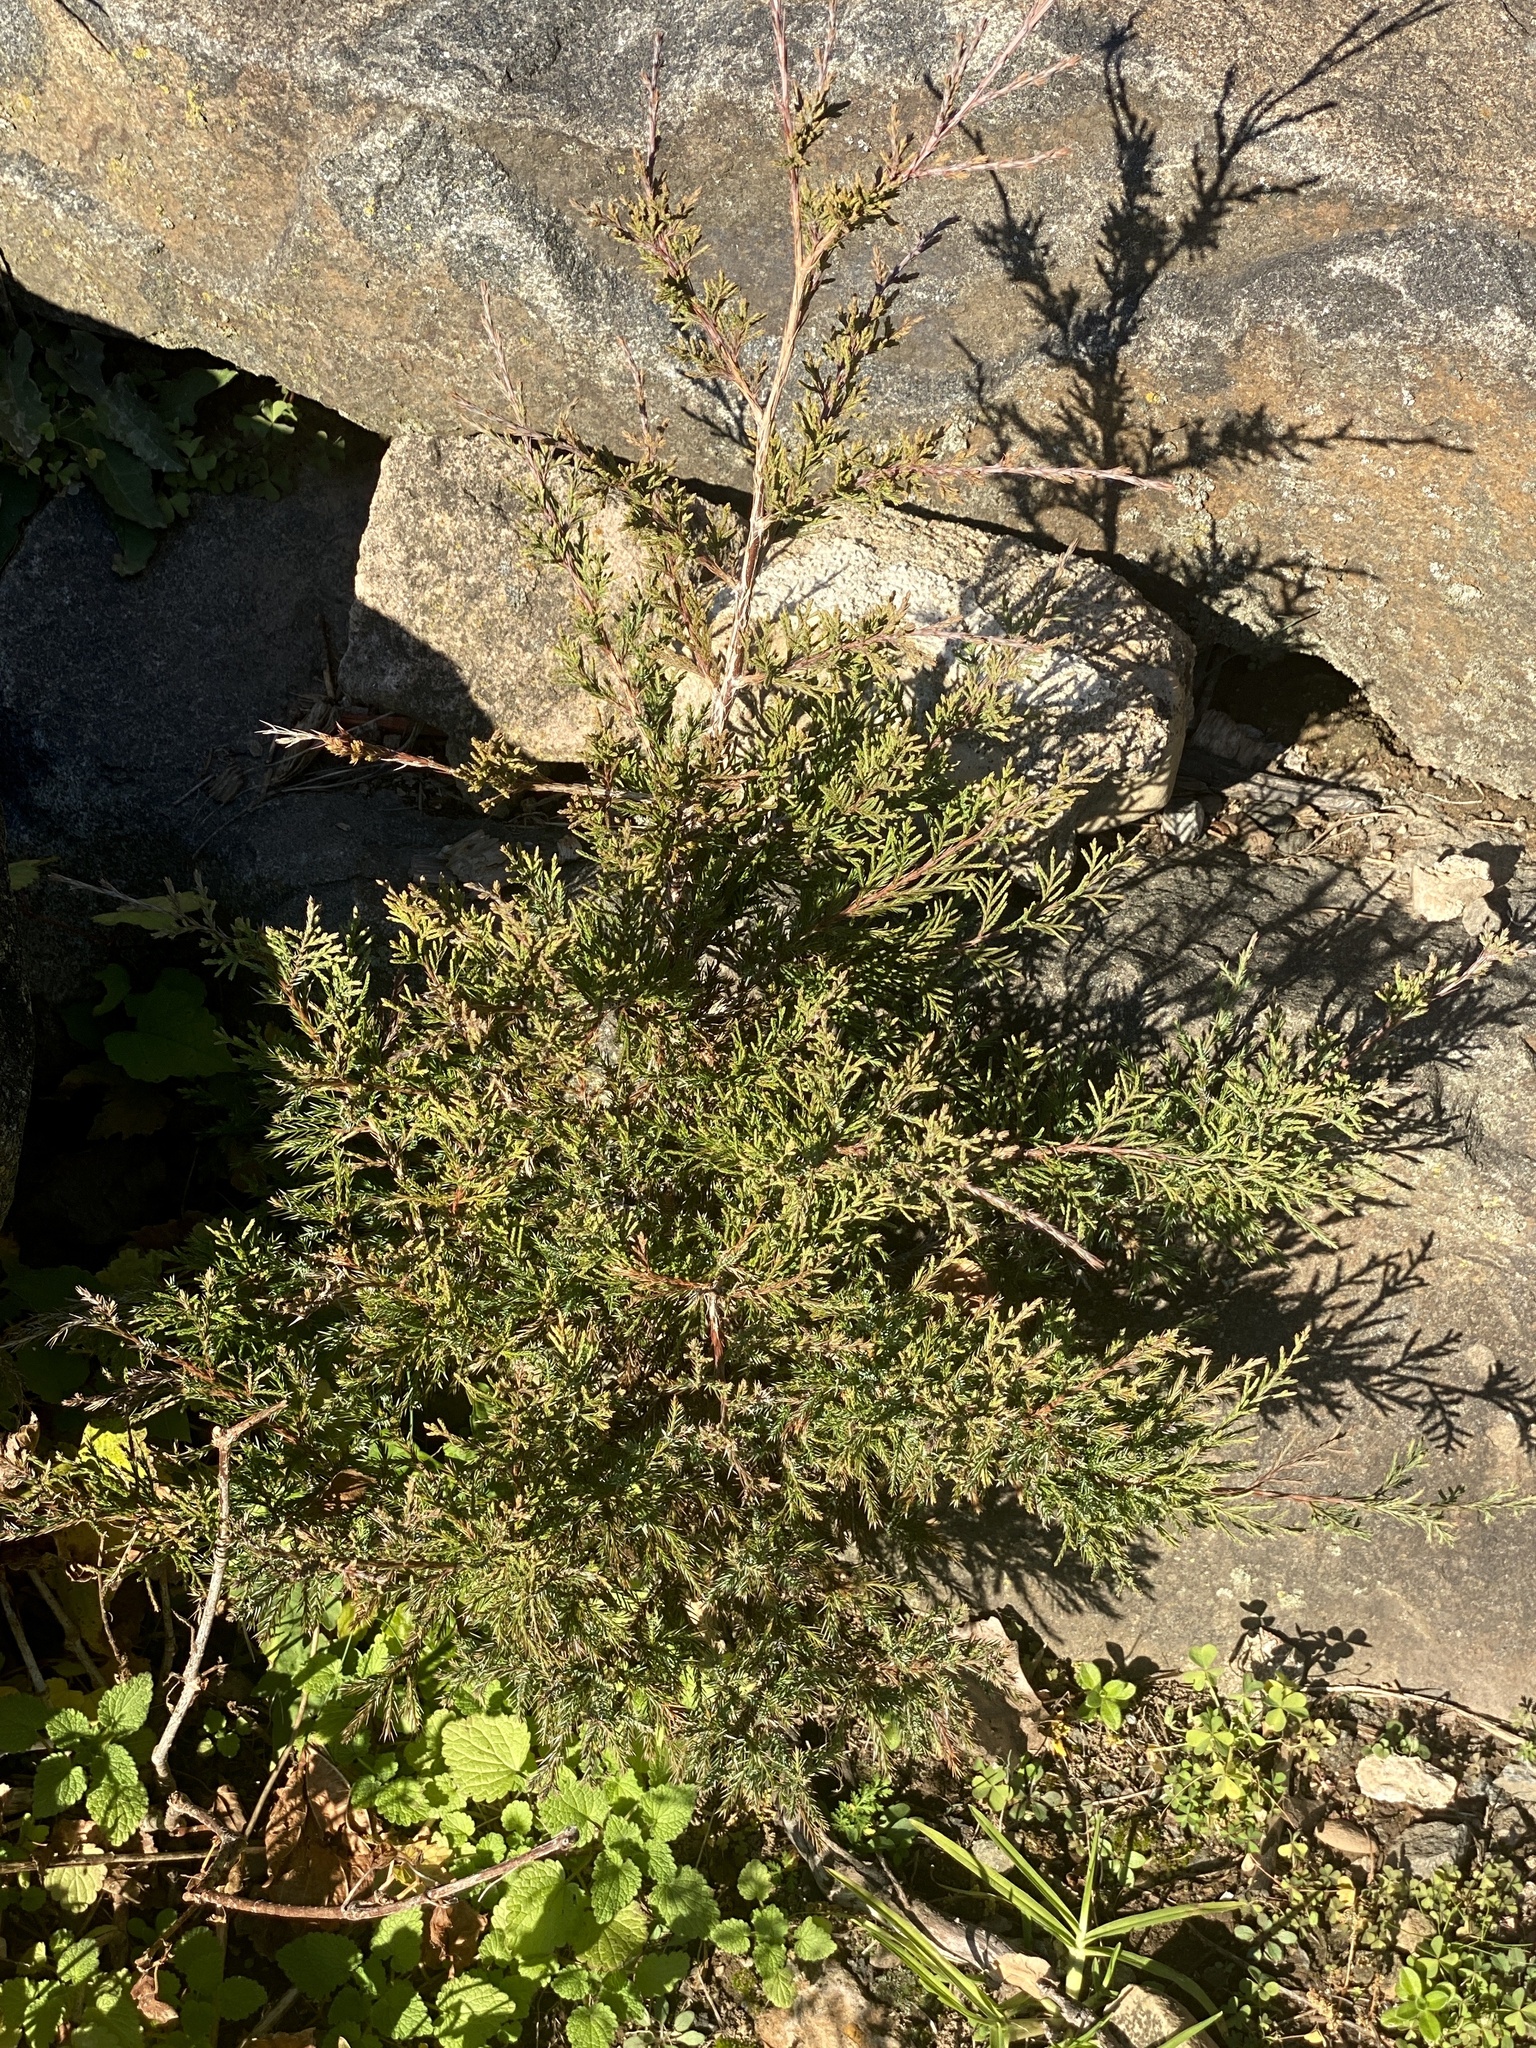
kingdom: Plantae
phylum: Tracheophyta
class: Pinopsida
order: Pinales
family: Cupressaceae
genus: Juniperus
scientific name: Juniperus virginiana
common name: Red juniper
